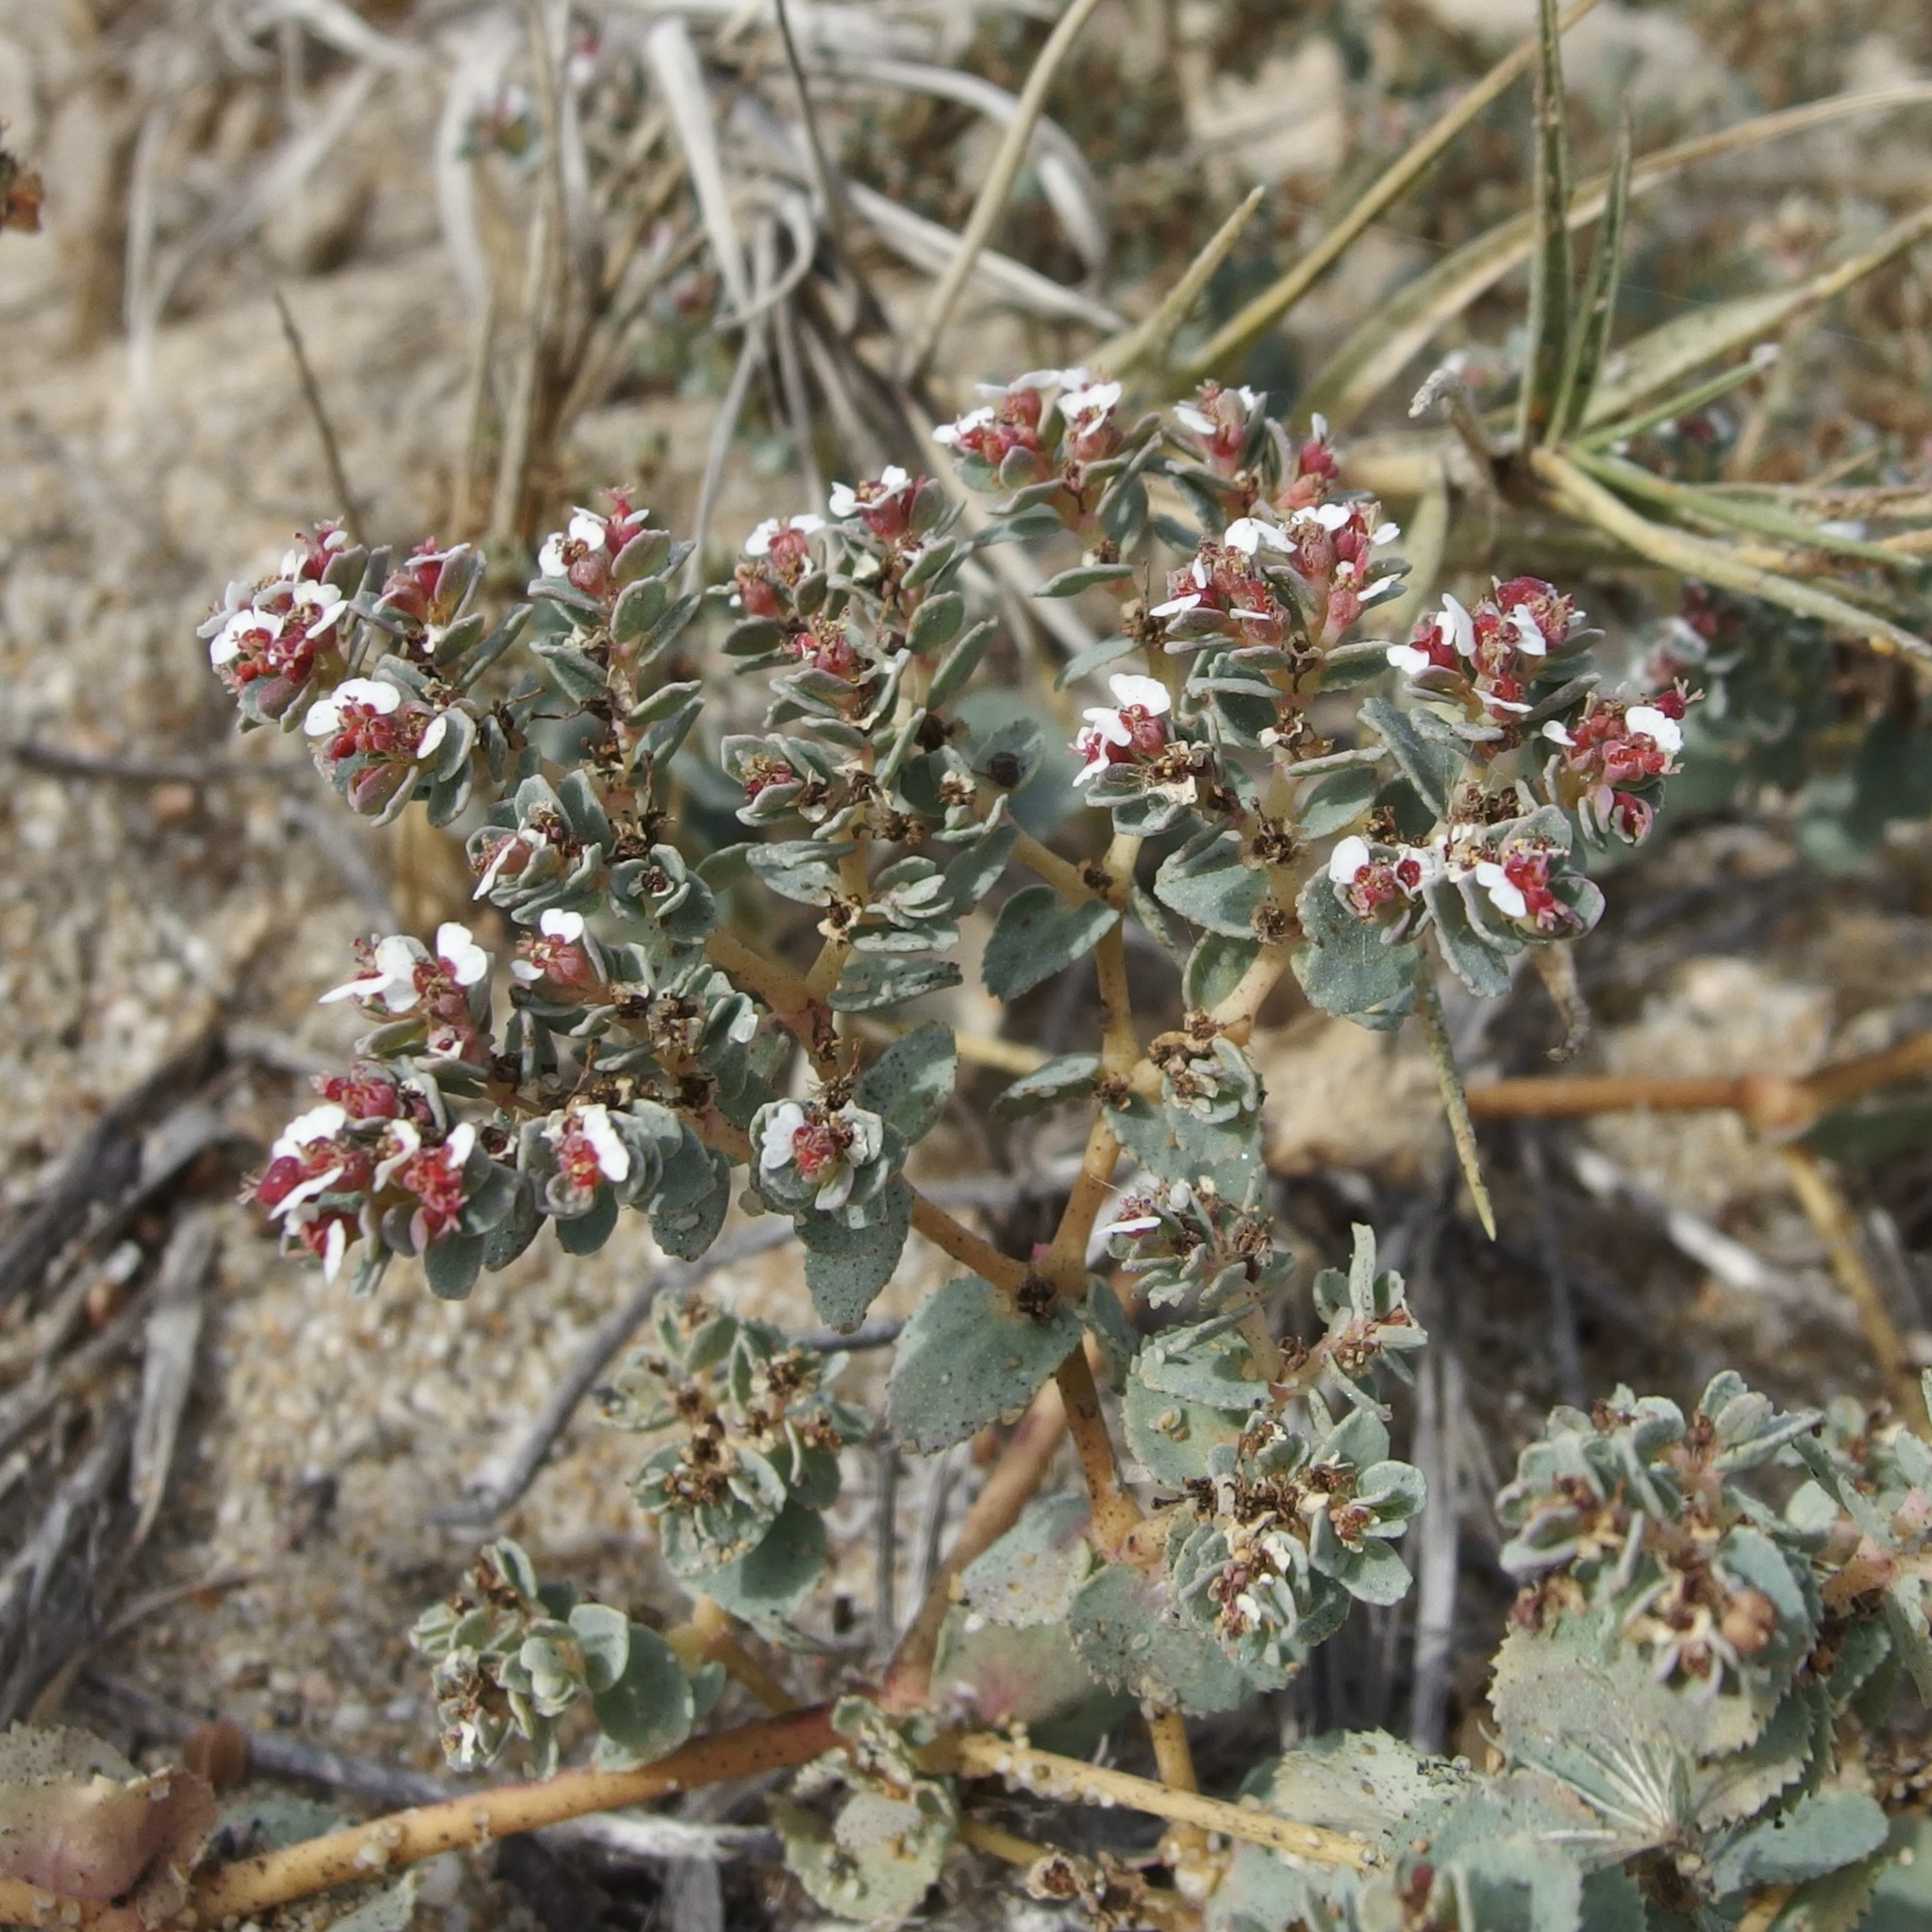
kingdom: Plantae
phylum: Tracheophyta
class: Magnoliopsida
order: Malpighiales
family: Euphorbiaceae
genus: Euphorbia
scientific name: Euphorbia leucophylla
